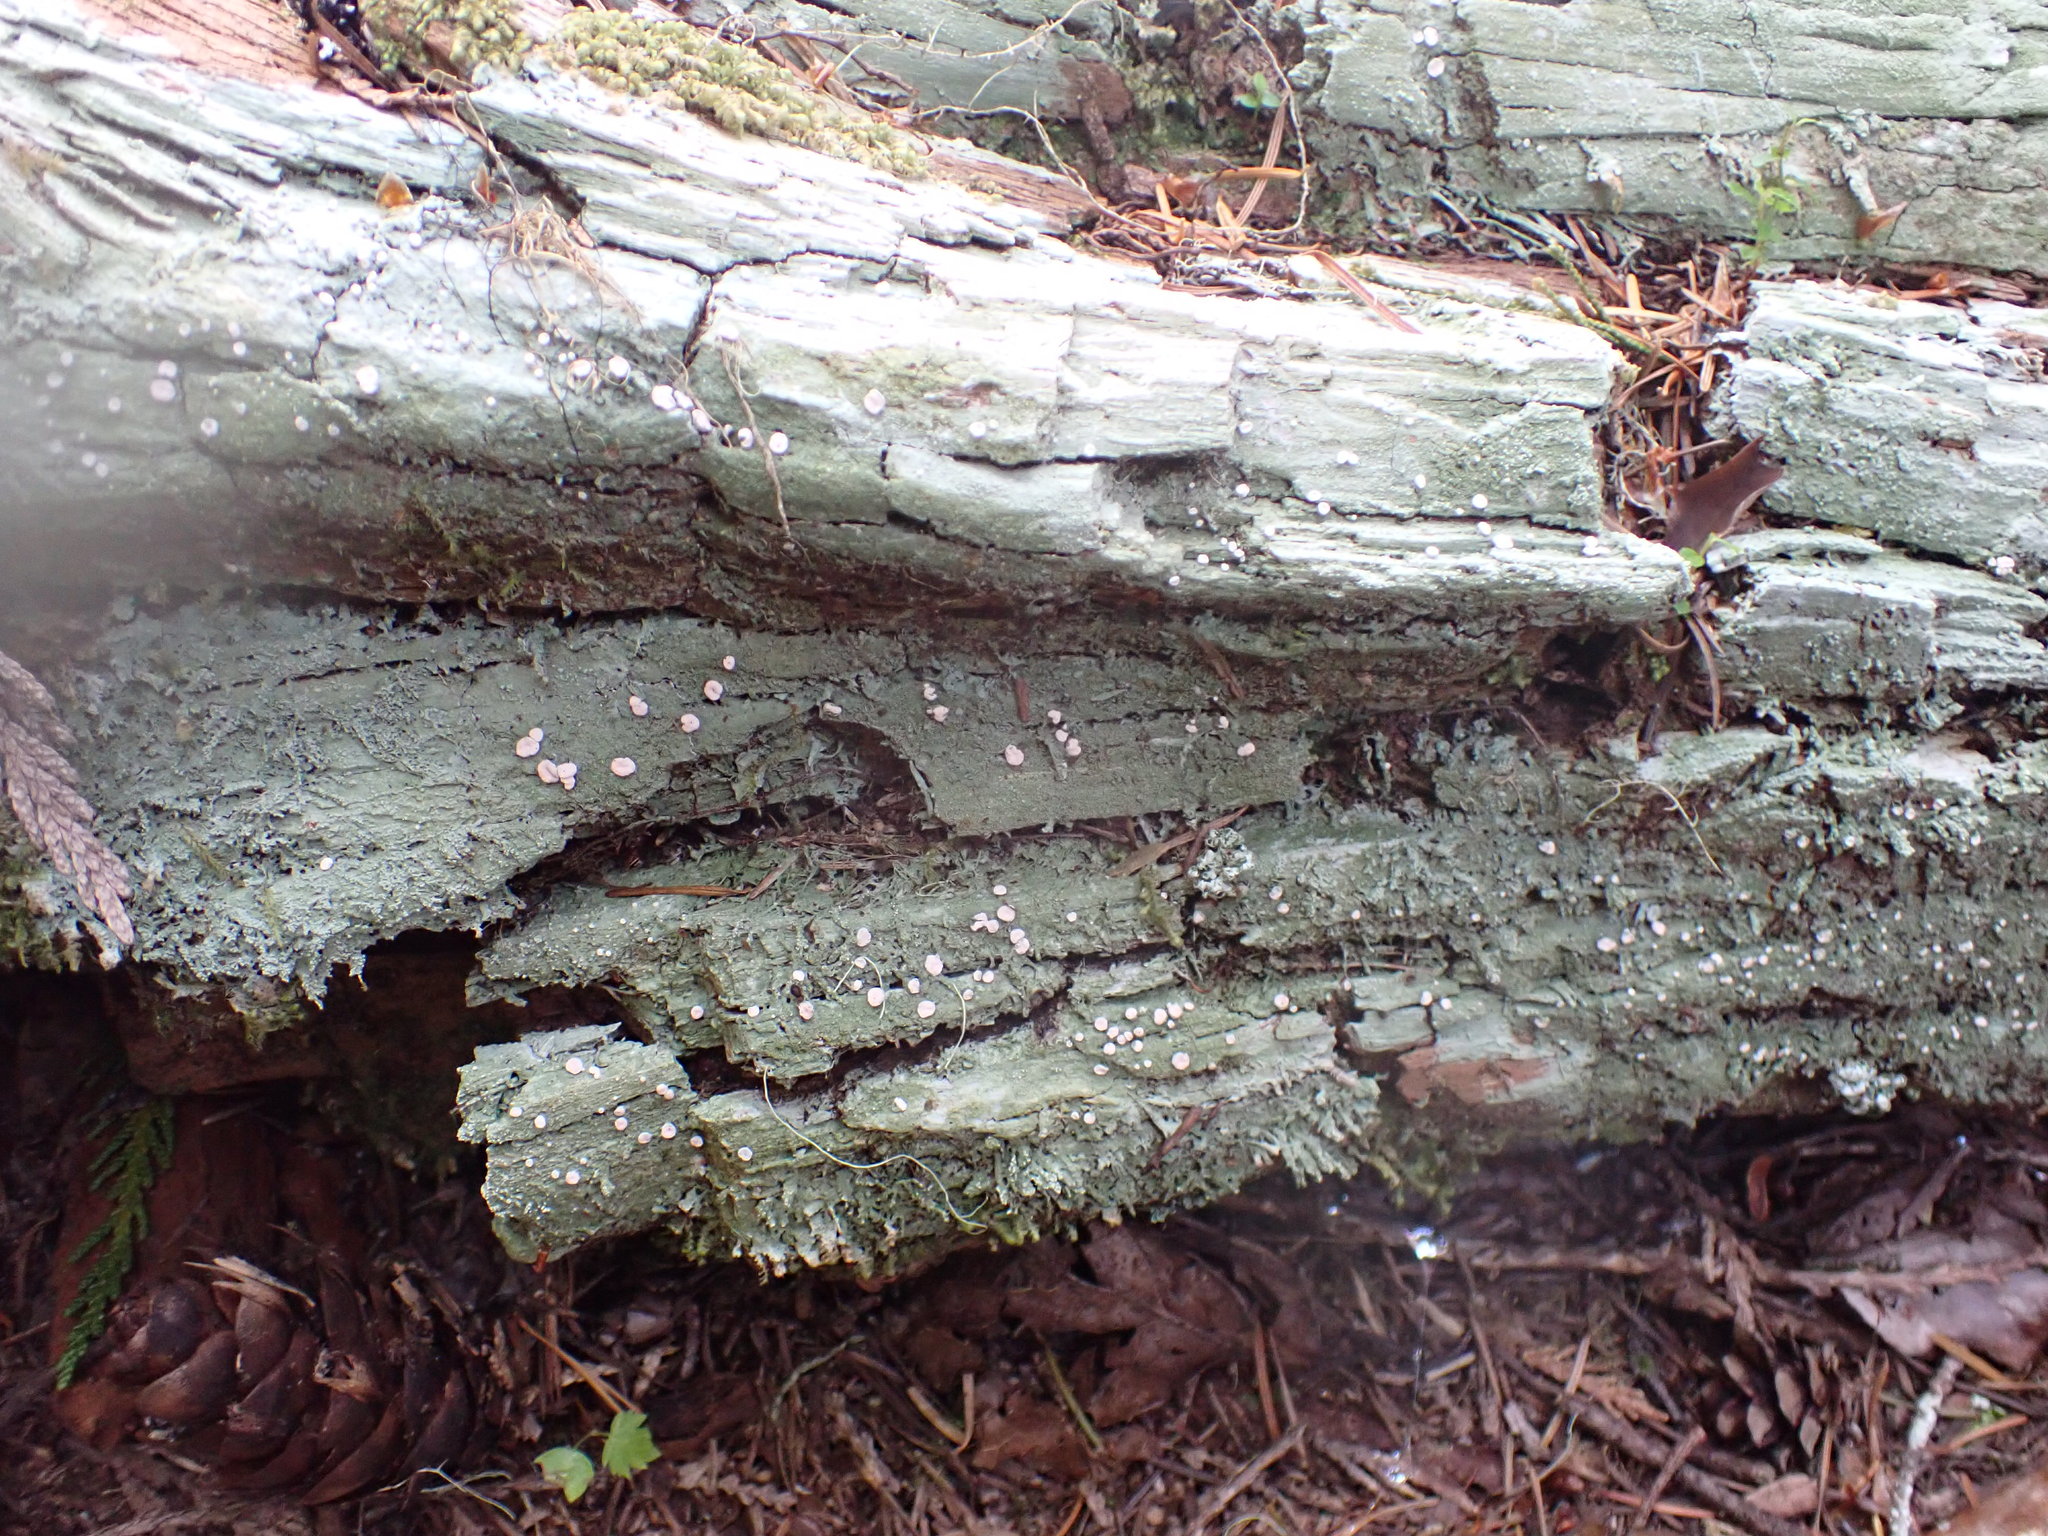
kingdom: Fungi
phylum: Ascomycota
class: Lecanoromycetes
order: Pertusariales
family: Icmadophilaceae
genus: Icmadophila
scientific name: Icmadophila ericetorum
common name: Candy lichen
